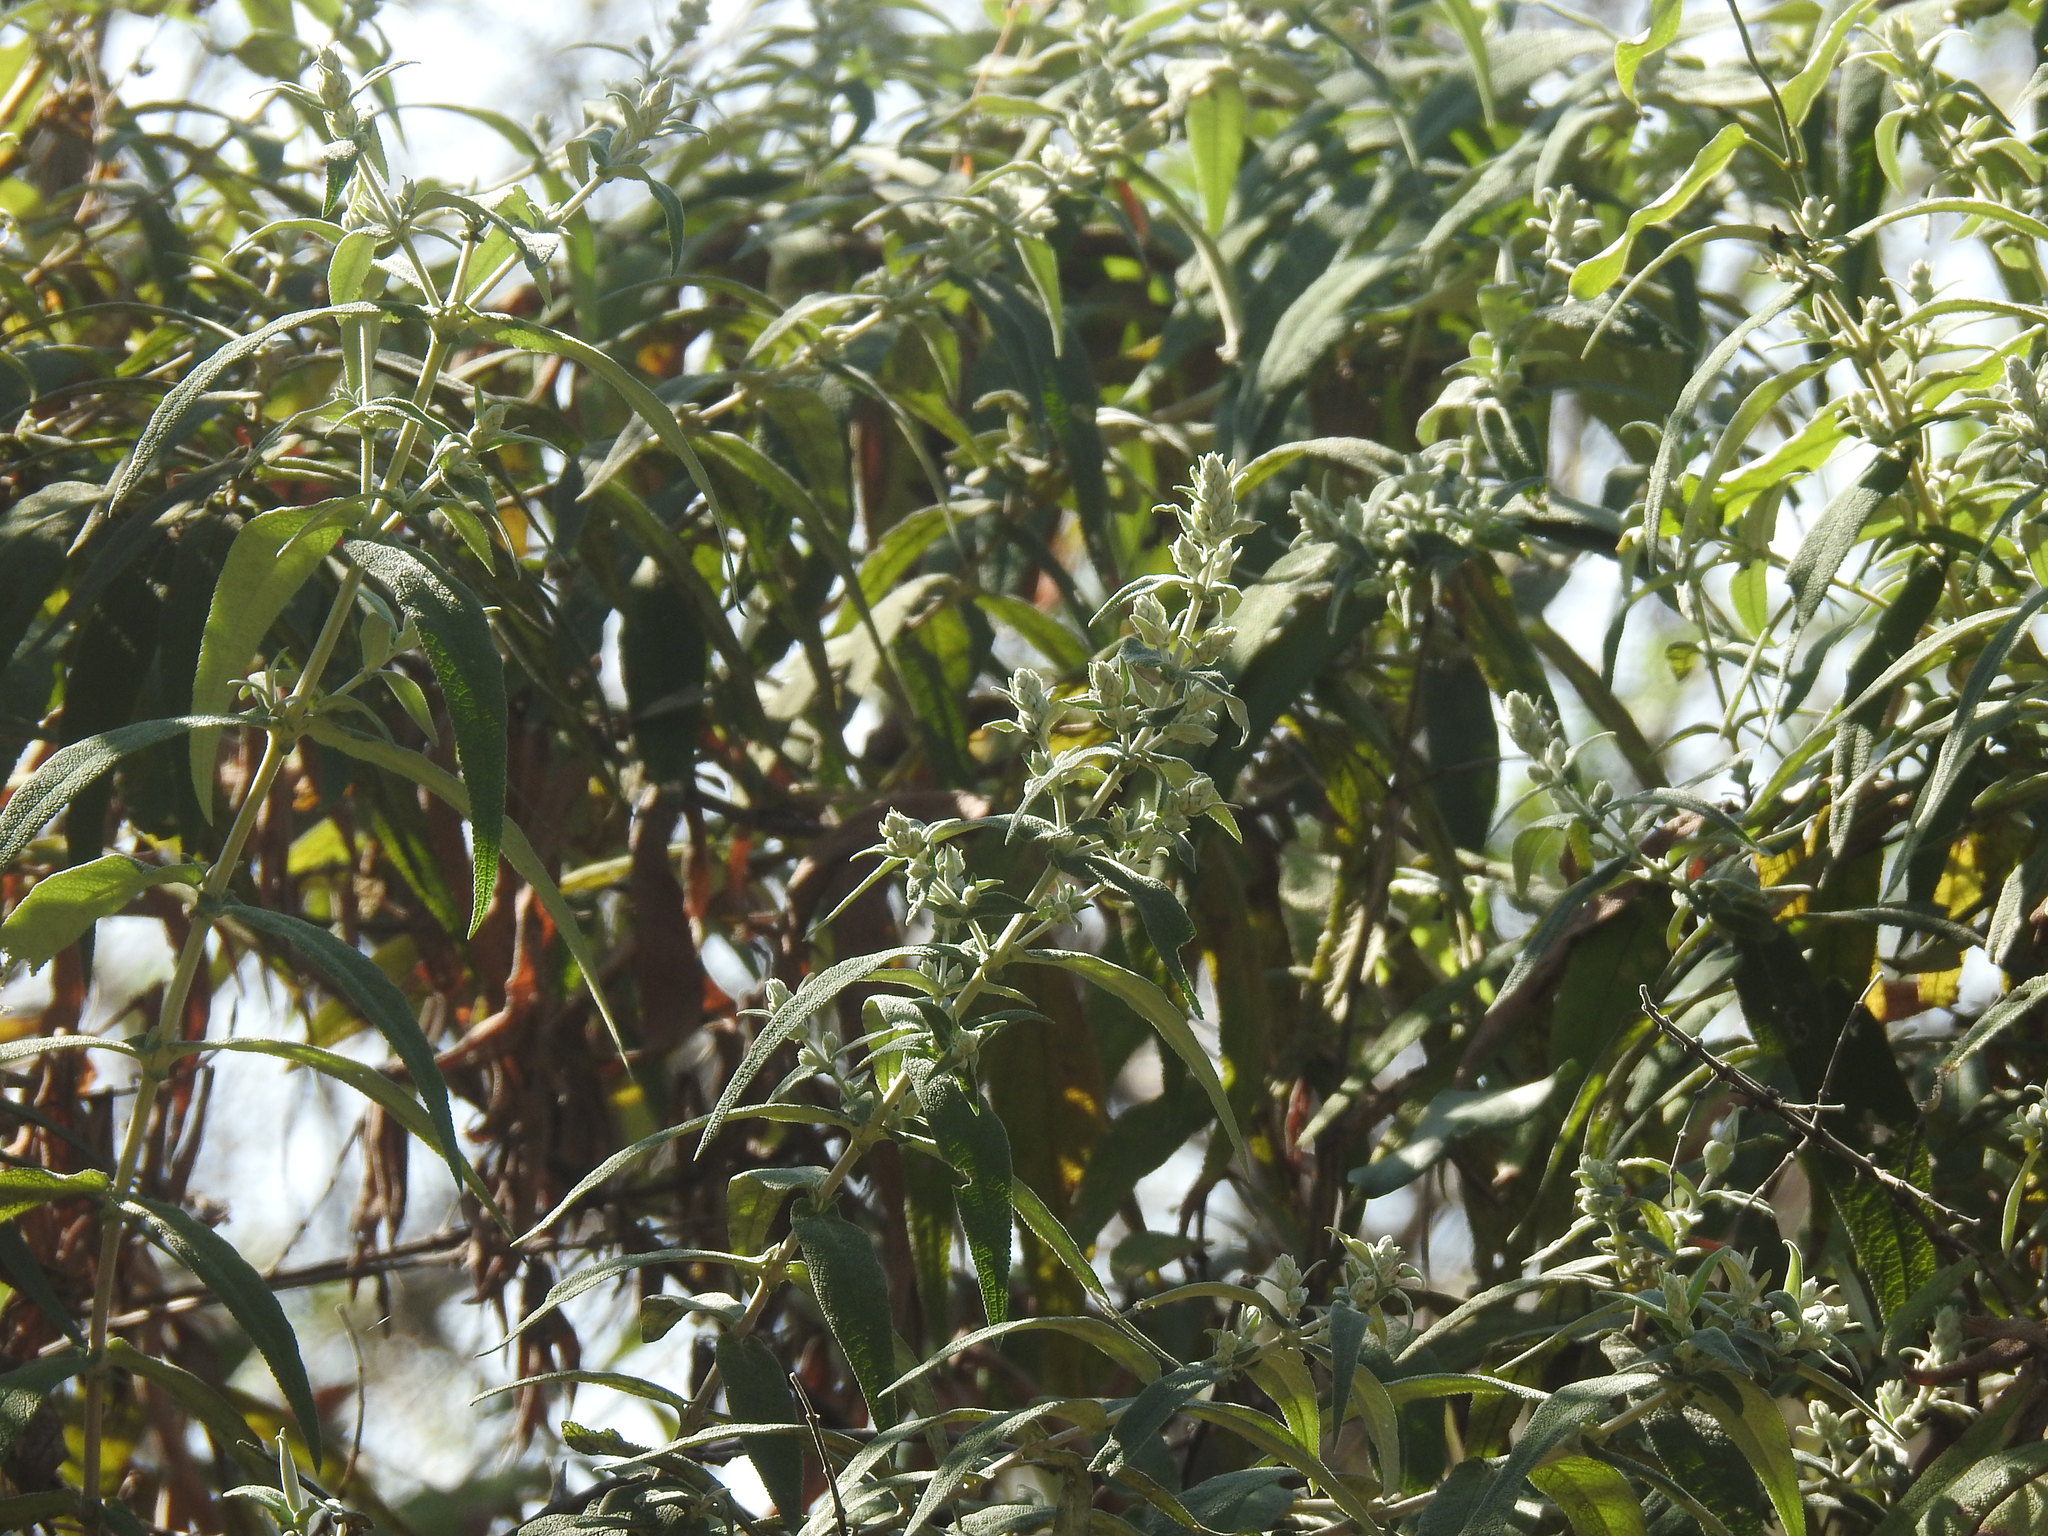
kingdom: Plantae
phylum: Tracheophyta
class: Magnoliopsida
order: Lamiales
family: Scrophulariaceae
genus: Buddleja
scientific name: Buddleja salviifolia
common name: Sagewood
